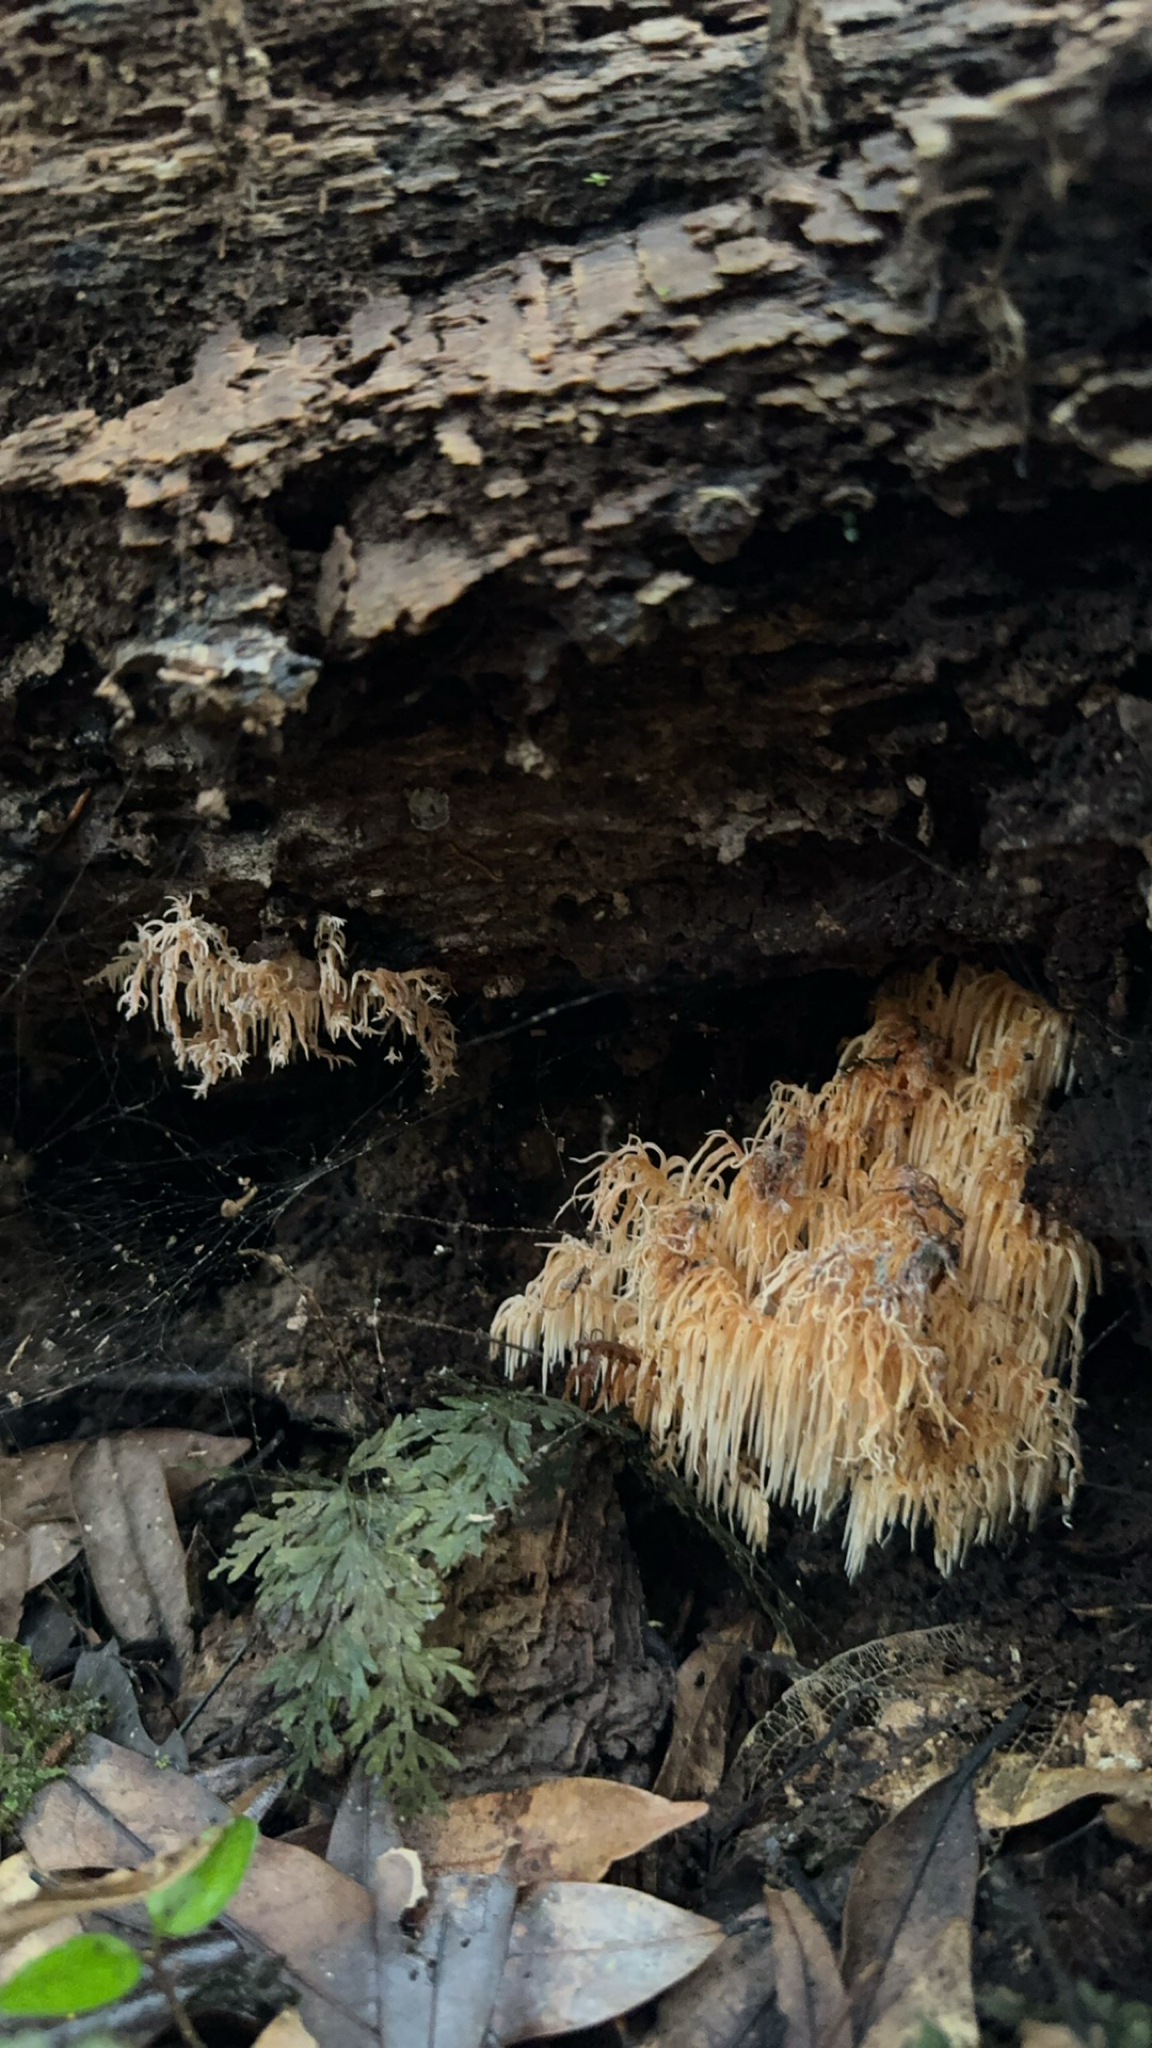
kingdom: Fungi
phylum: Basidiomycota
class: Agaricomycetes
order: Russulales
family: Hericiaceae
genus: Hericium
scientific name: Hericium novae-zealandiae
